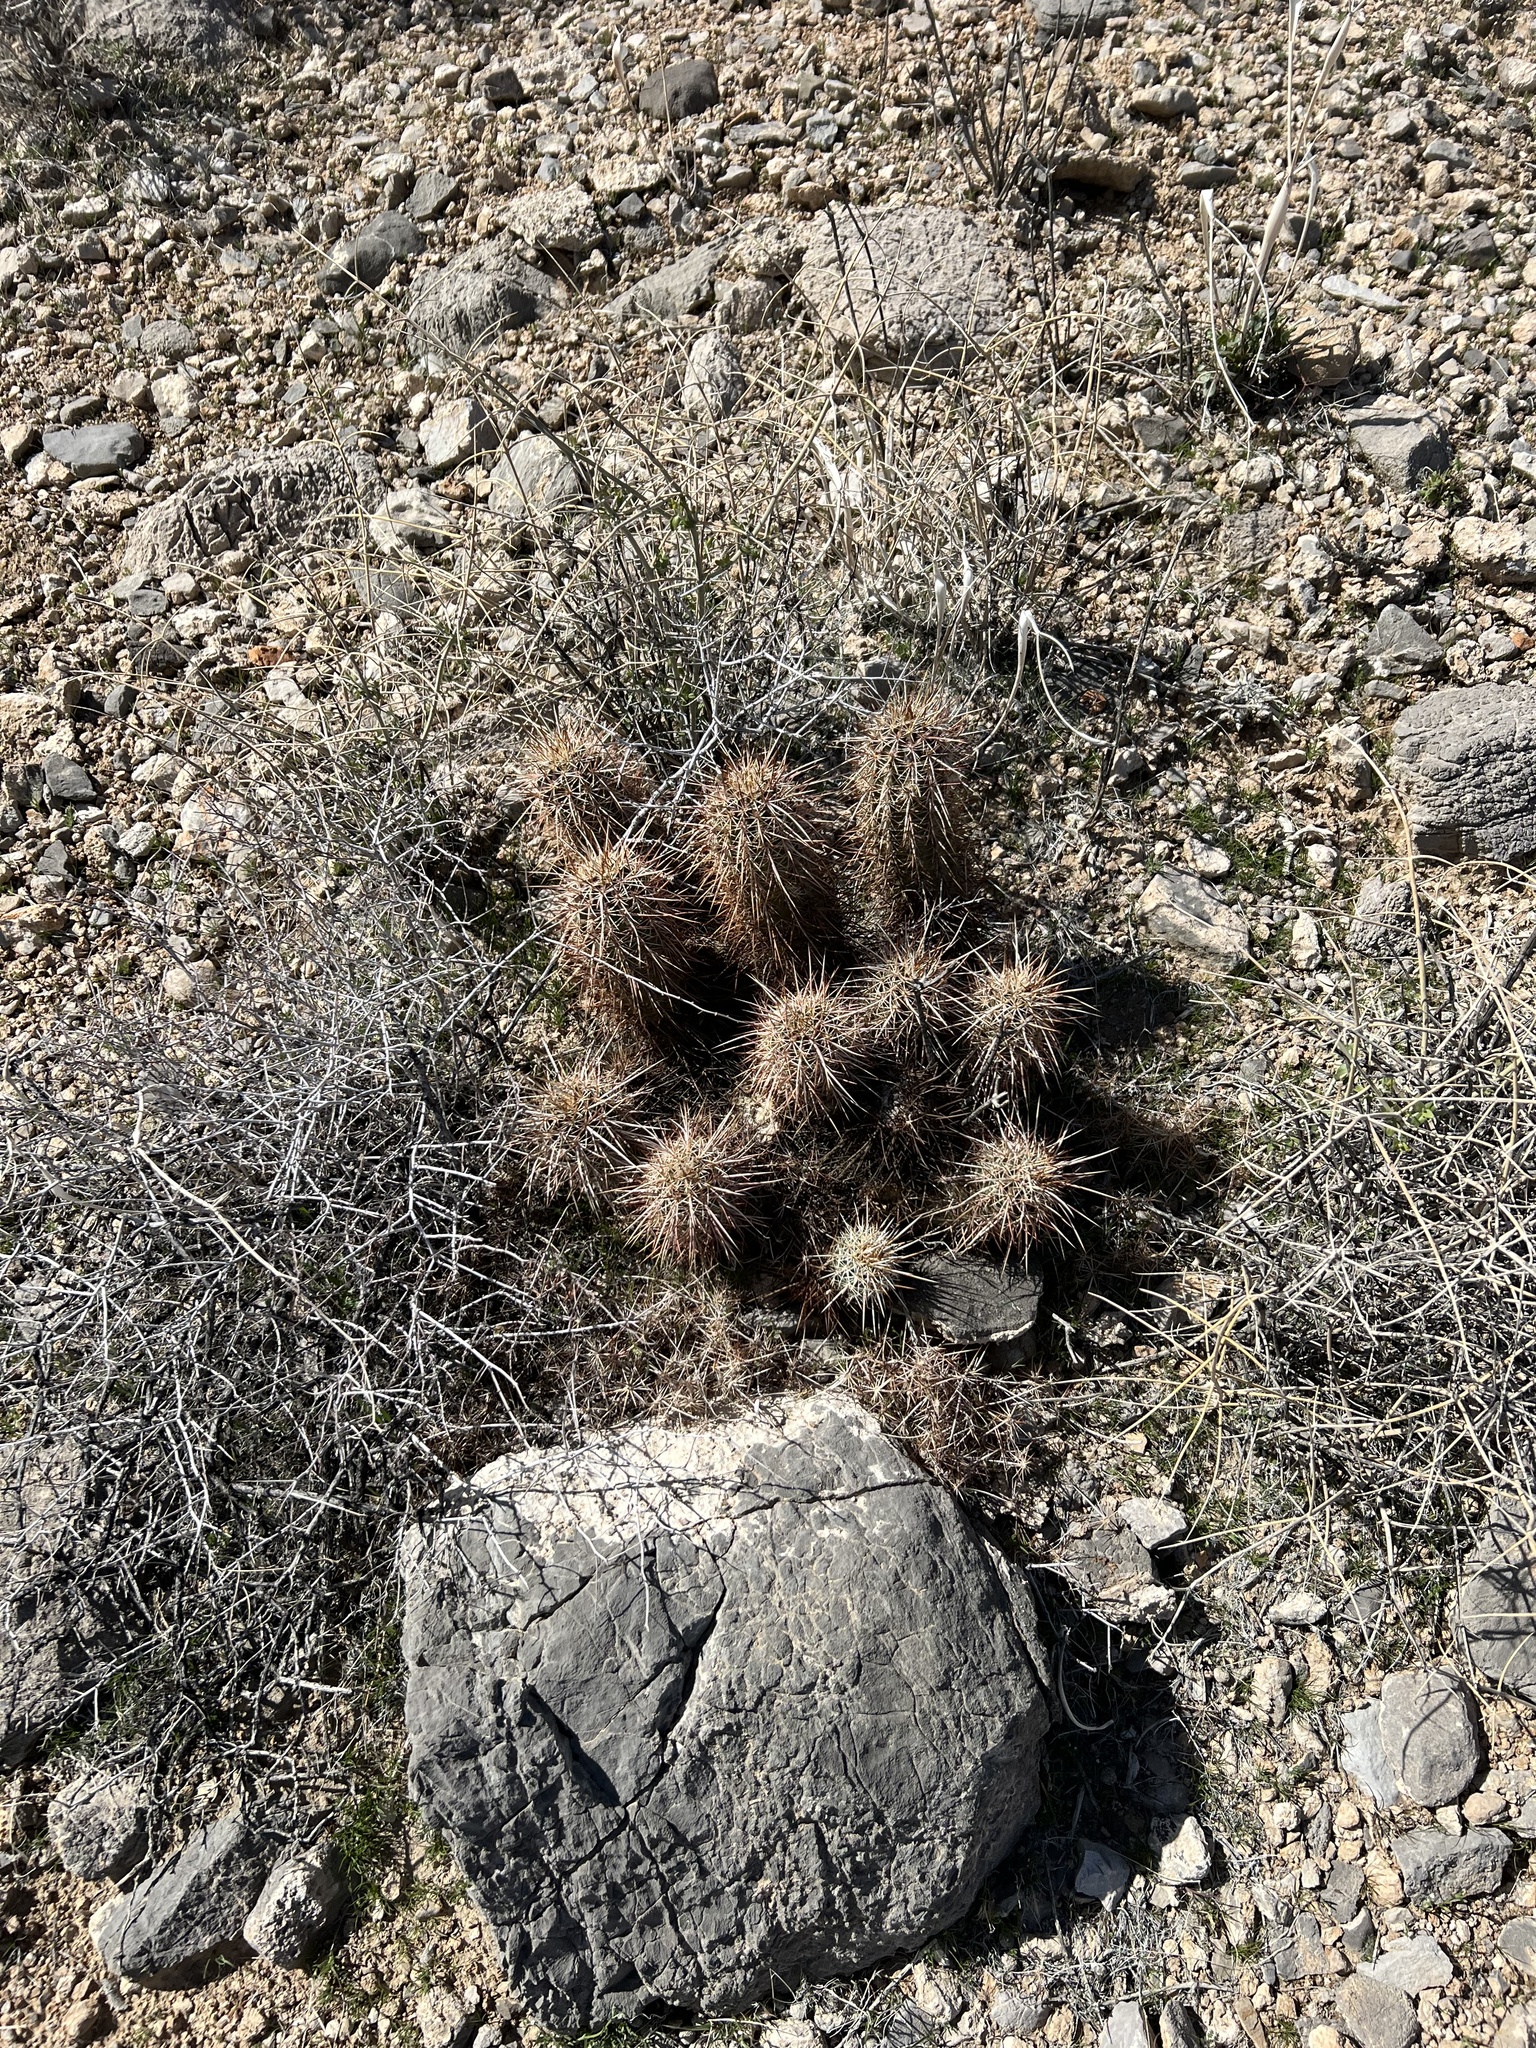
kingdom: Plantae
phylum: Tracheophyta
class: Magnoliopsida
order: Caryophyllales
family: Cactaceae
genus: Echinocereus
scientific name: Echinocereus engelmannii
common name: Engelmann's hedgehog cactus
